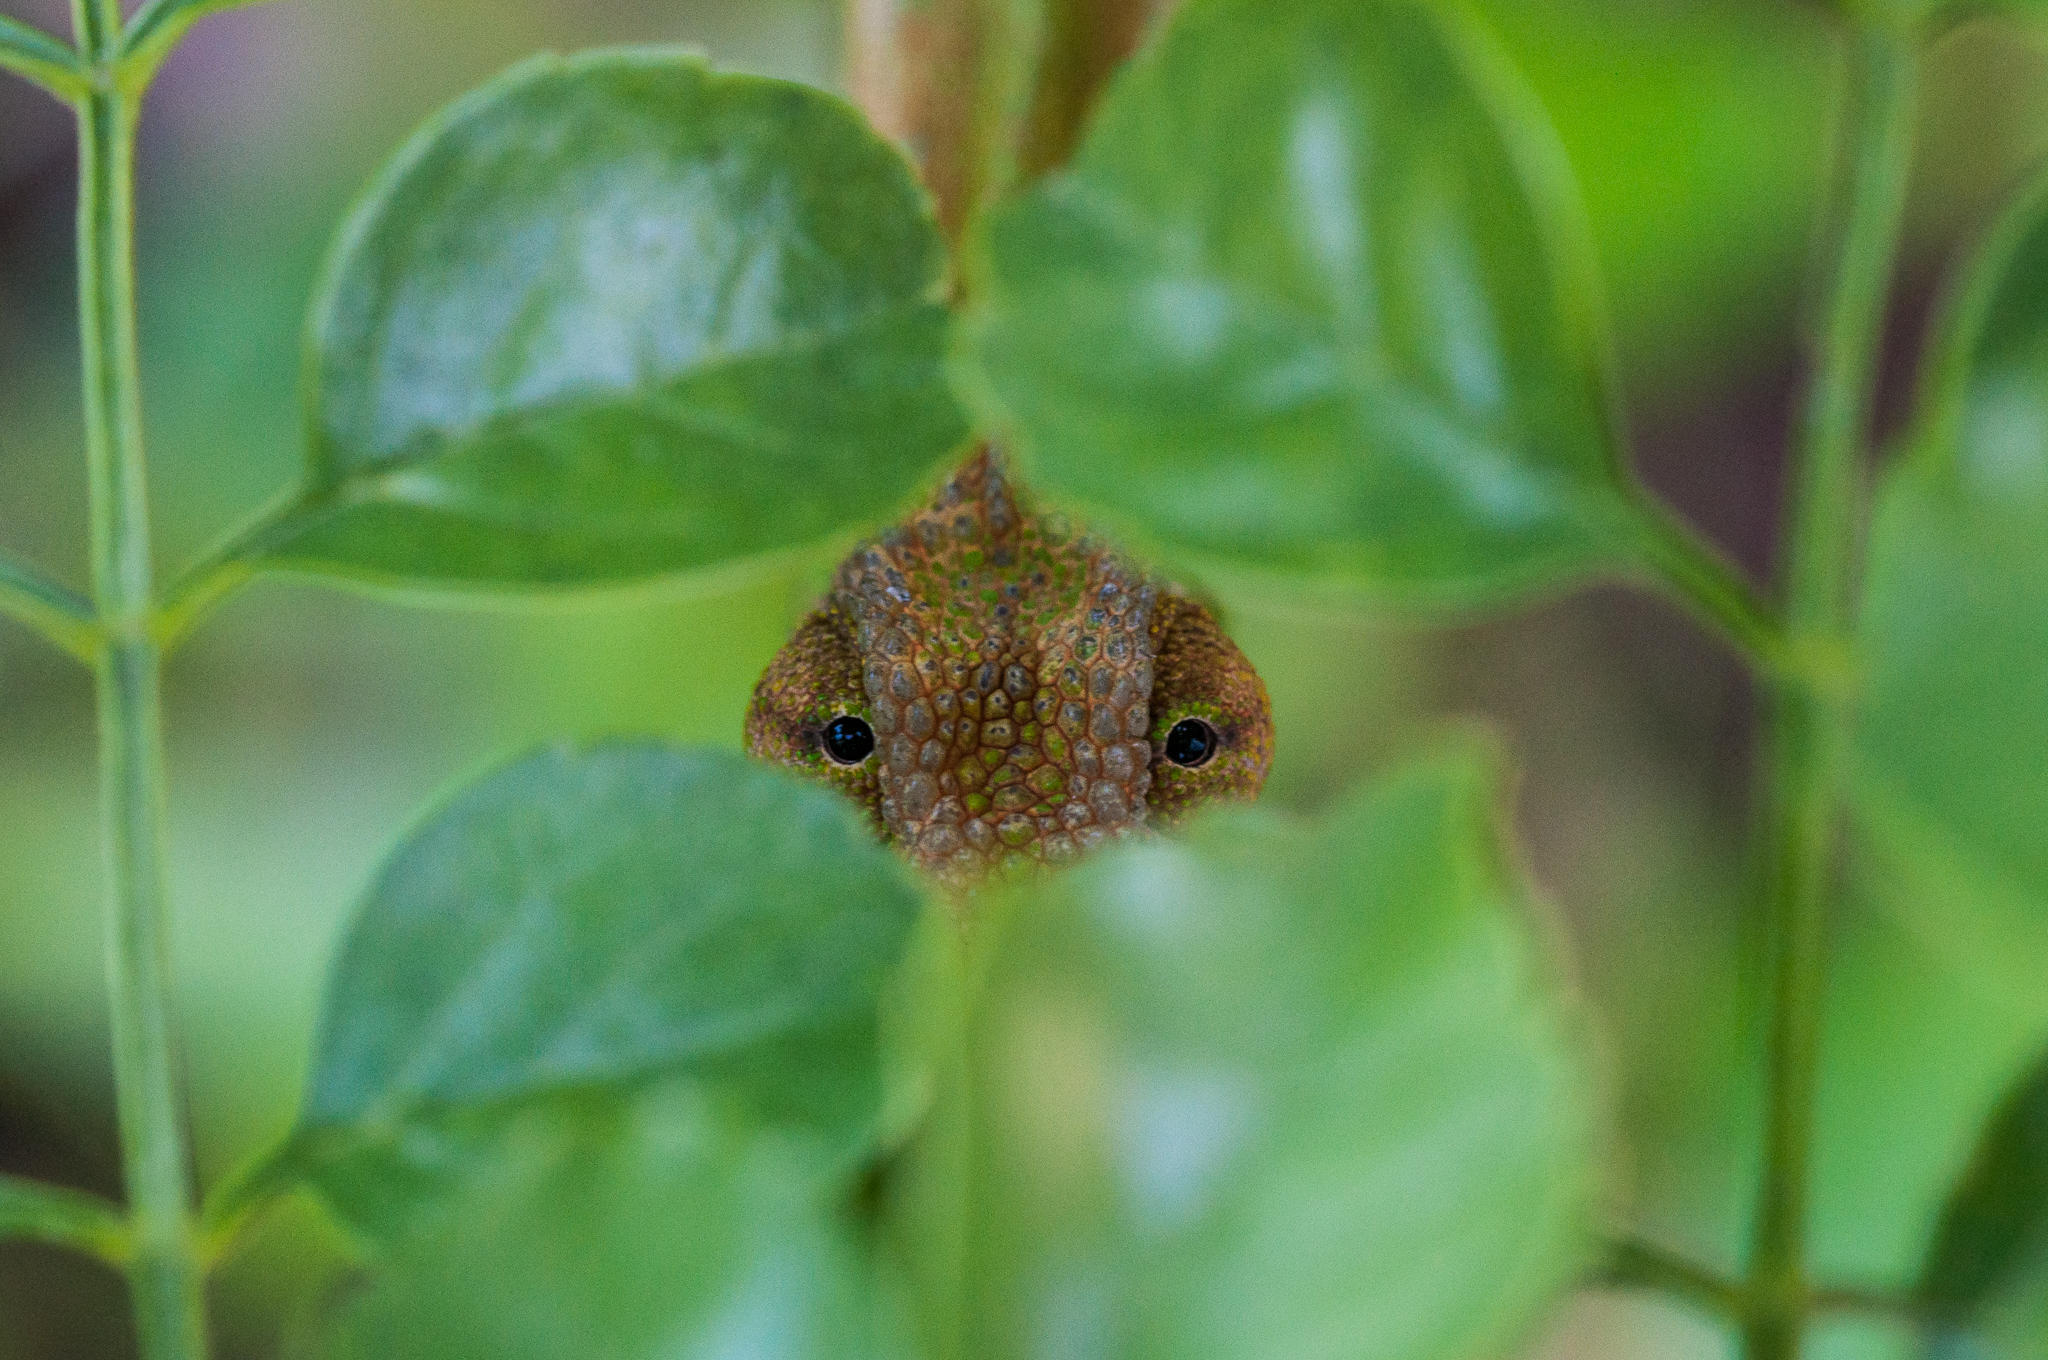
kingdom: Animalia
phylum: Chordata
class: Squamata
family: Chamaeleonidae
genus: Bradypodion
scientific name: Bradypodion pumilum
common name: Cape dwarf chameleon
